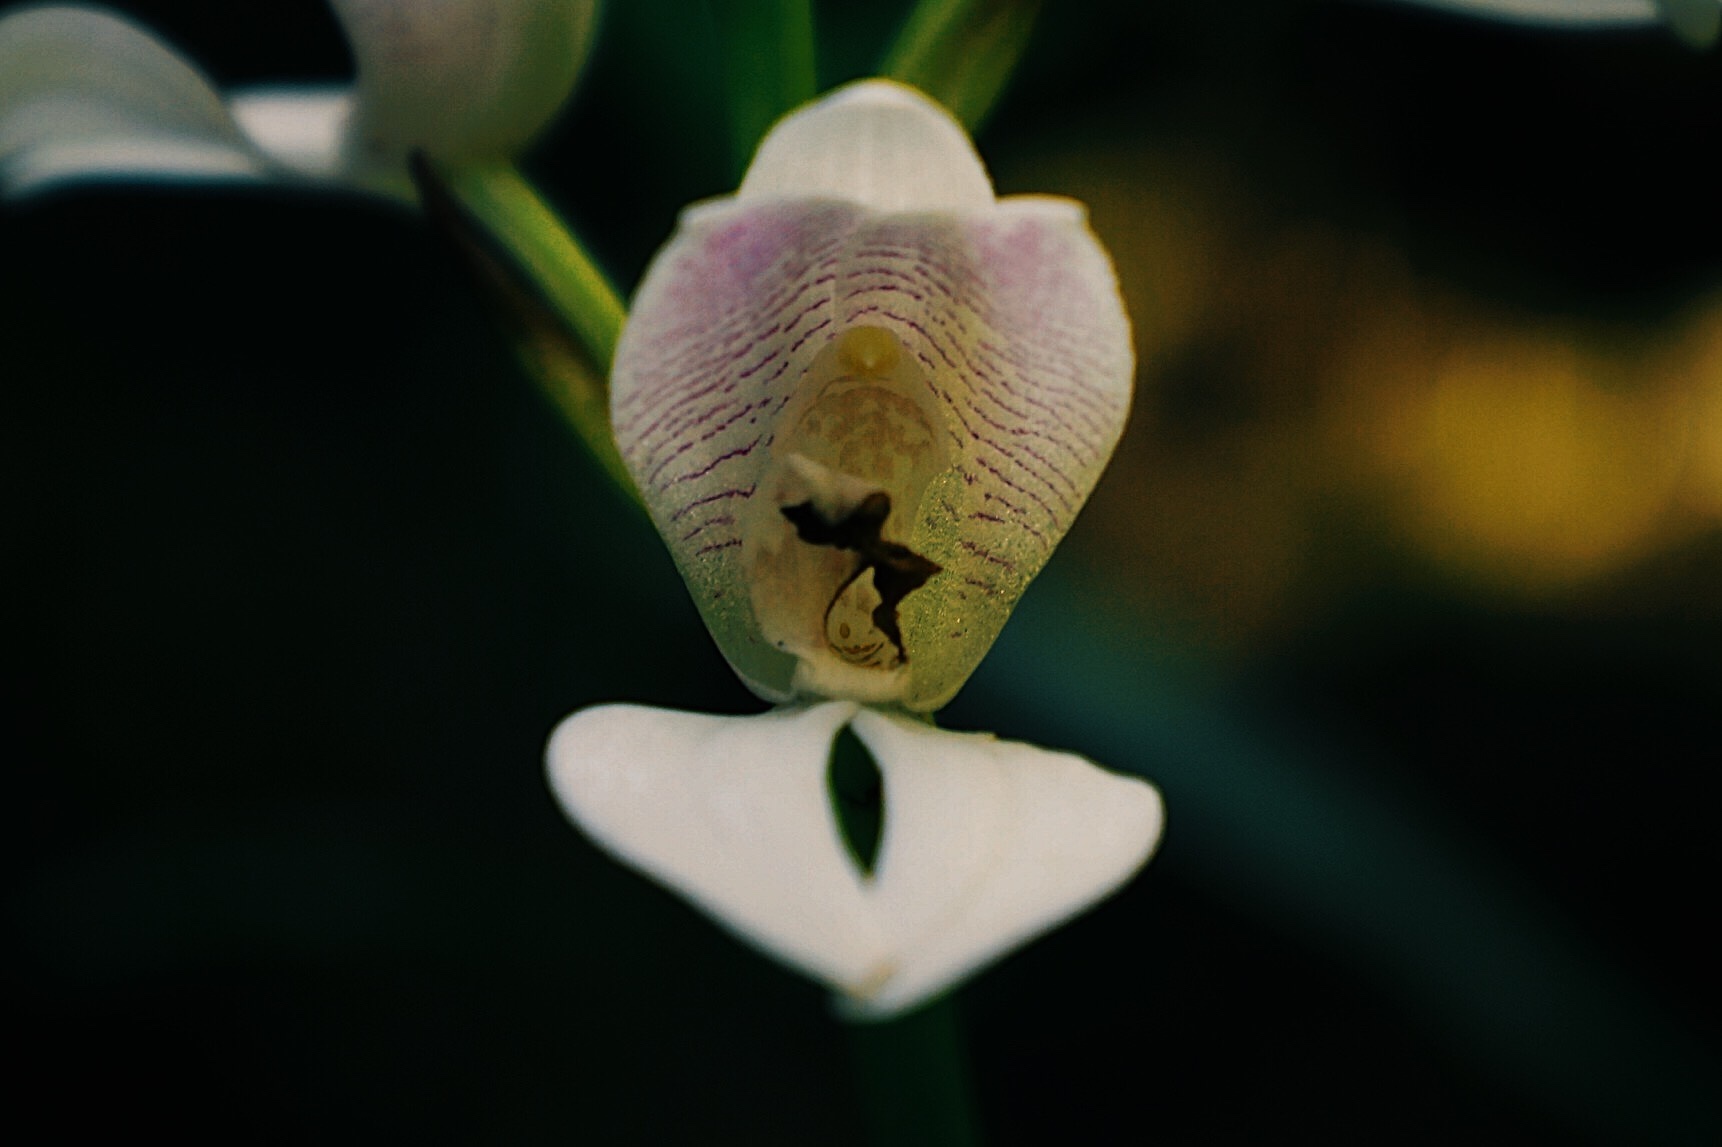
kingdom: Plantae
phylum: Tracheophyta
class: Liliopsida
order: Asparagales
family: Orchidaceae
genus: Govenia
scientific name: Govenia liliacea
